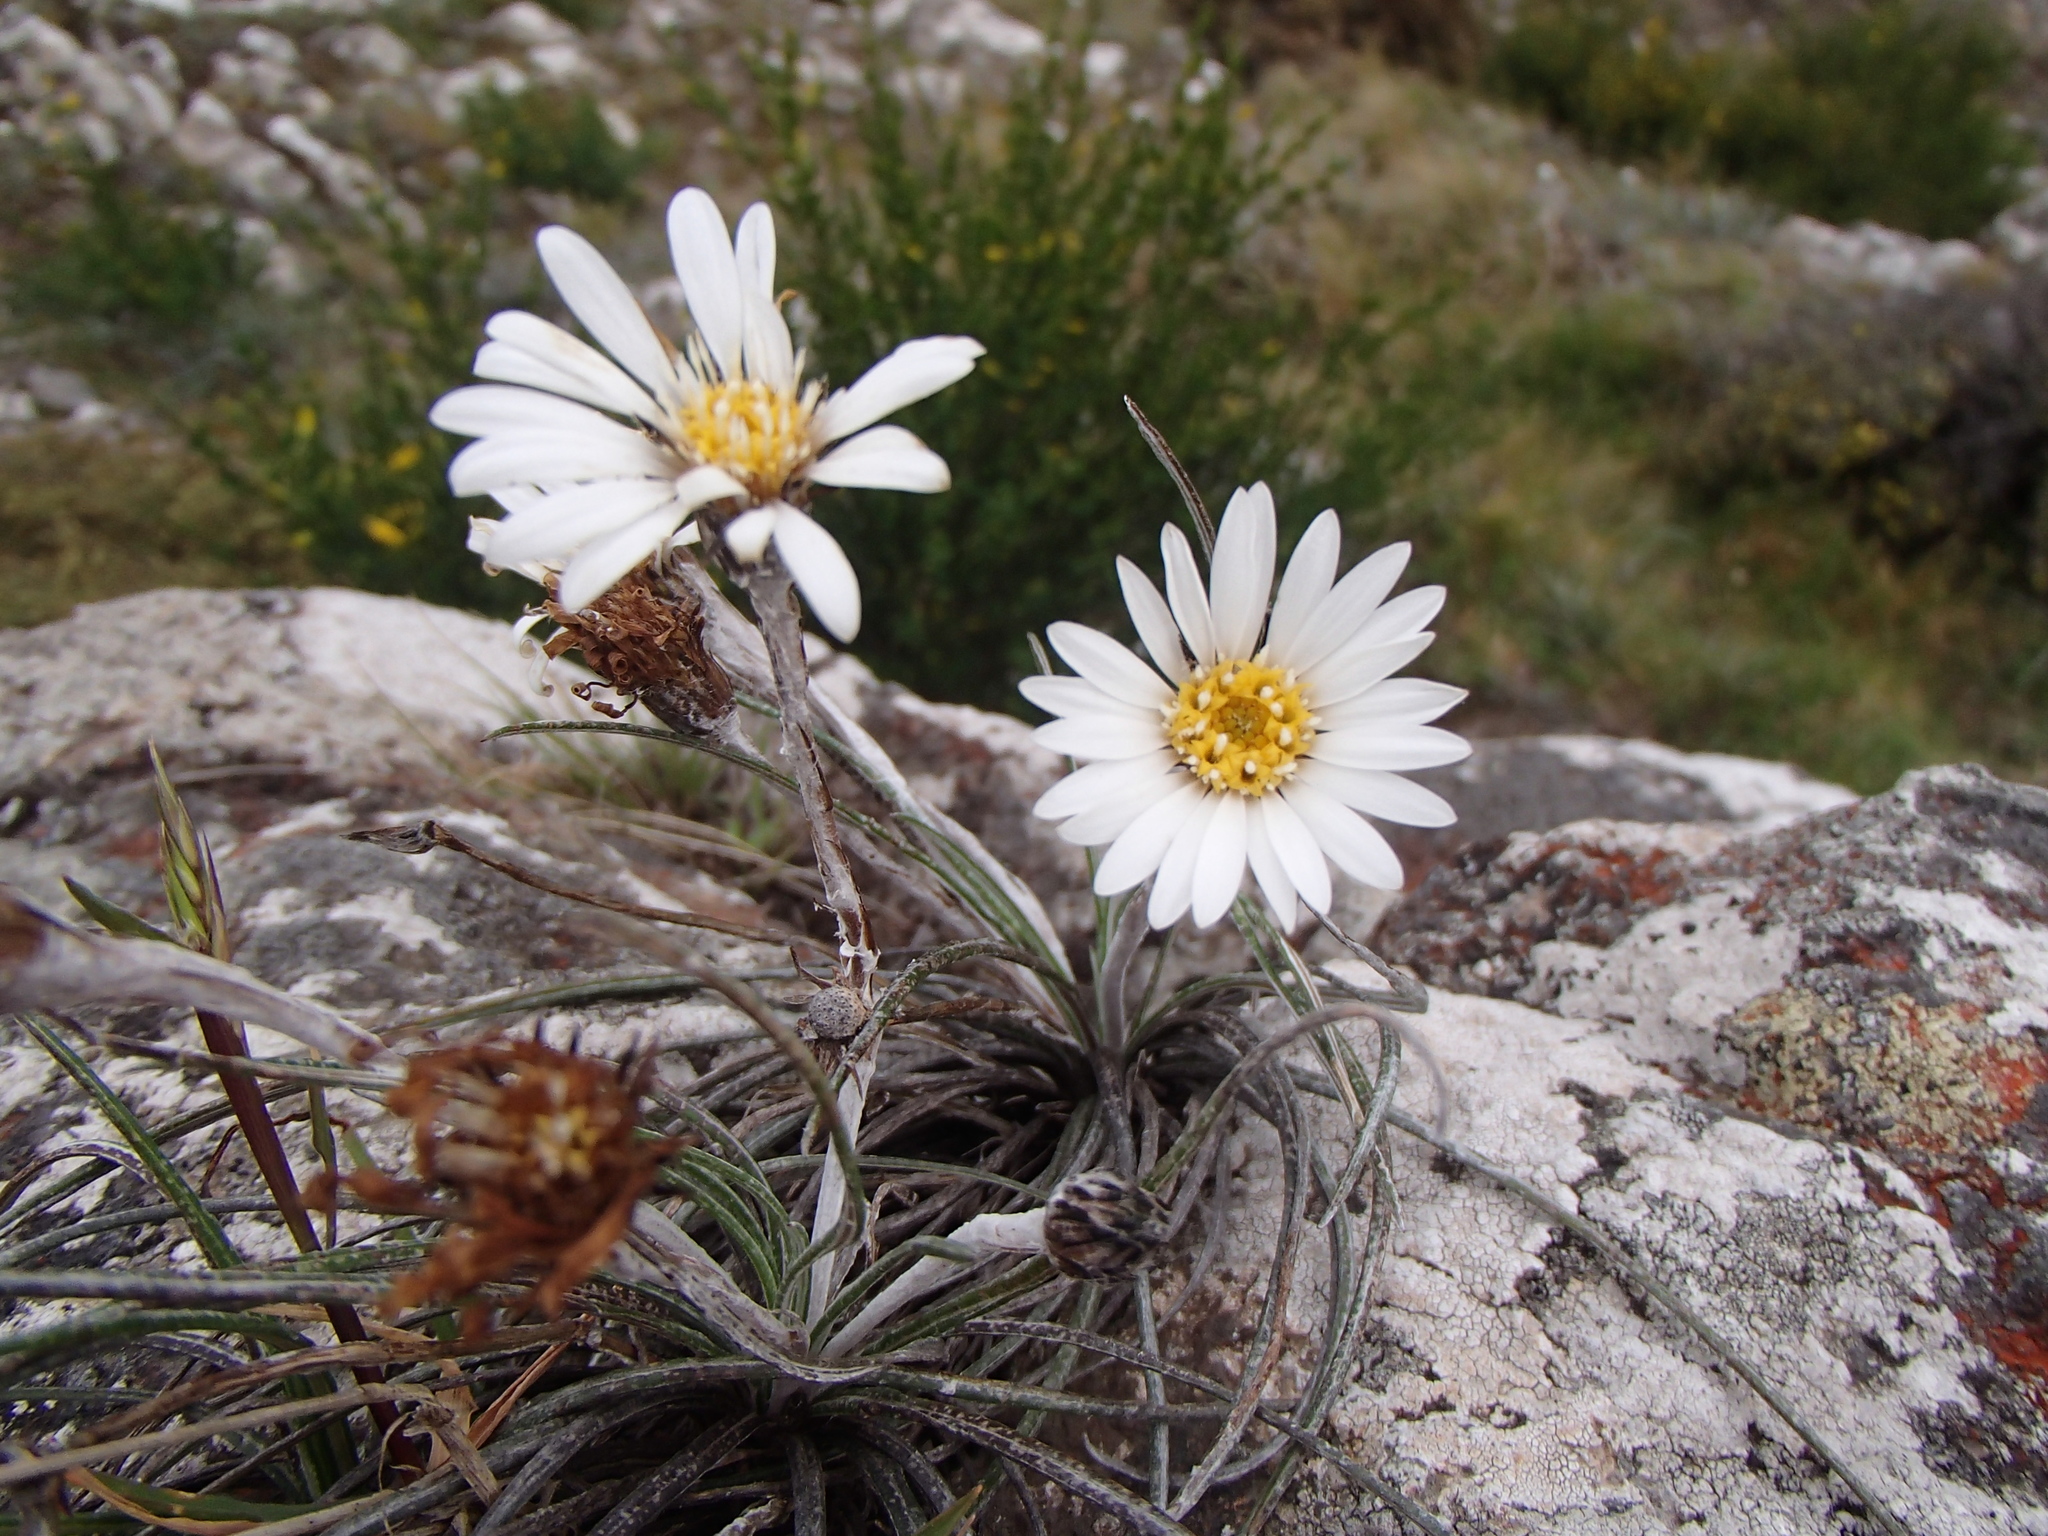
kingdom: Plantae
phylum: Tracheophyta
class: Magnoliopsida
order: Asterales
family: Asteraceae
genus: Celmisia
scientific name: Celmisia gracilenta
